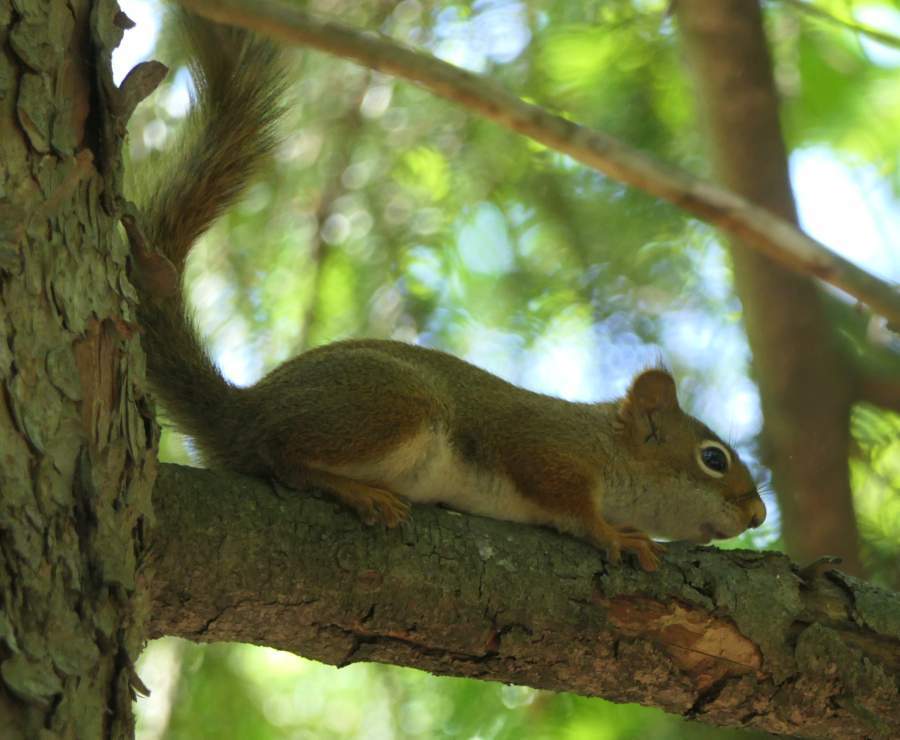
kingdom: Animalia
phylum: Chordata
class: Mammalia
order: Rodentia
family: Sciuridae
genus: Tamiasciurus
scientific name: Tamiasciurus hudsonicus
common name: Red squirrel
